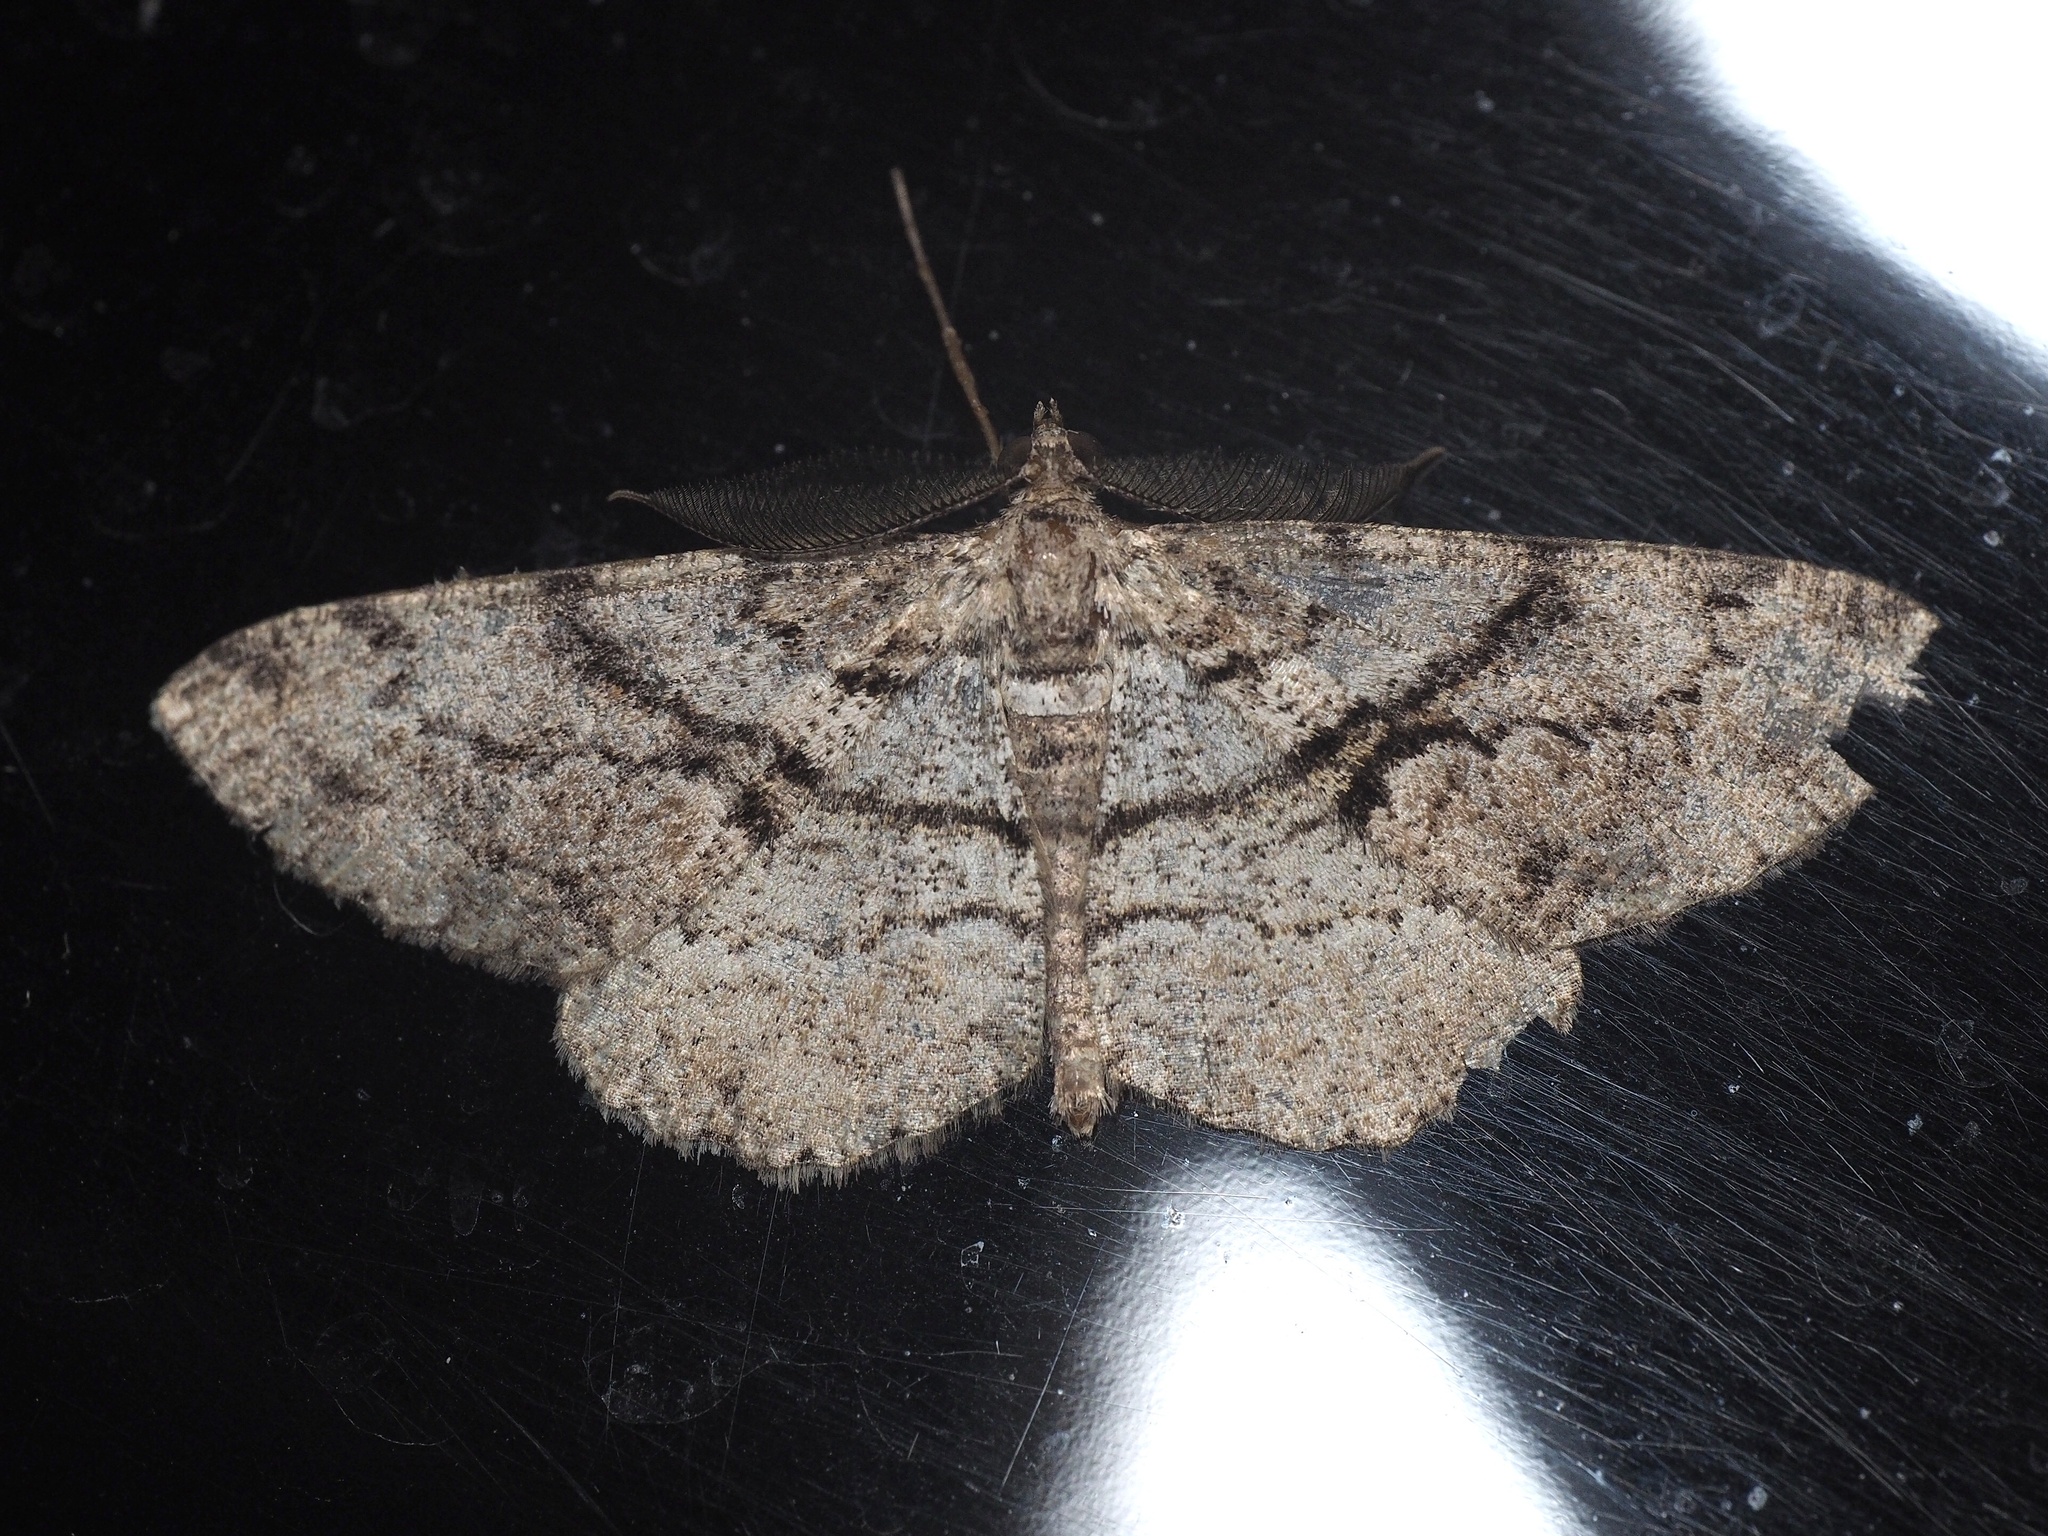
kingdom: Animalia
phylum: Arthropoda
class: Insecta
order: Lepidoptera
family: Geometridae
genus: Peribatodes
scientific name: Peribatodes secundaria
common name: Feathered beauty
